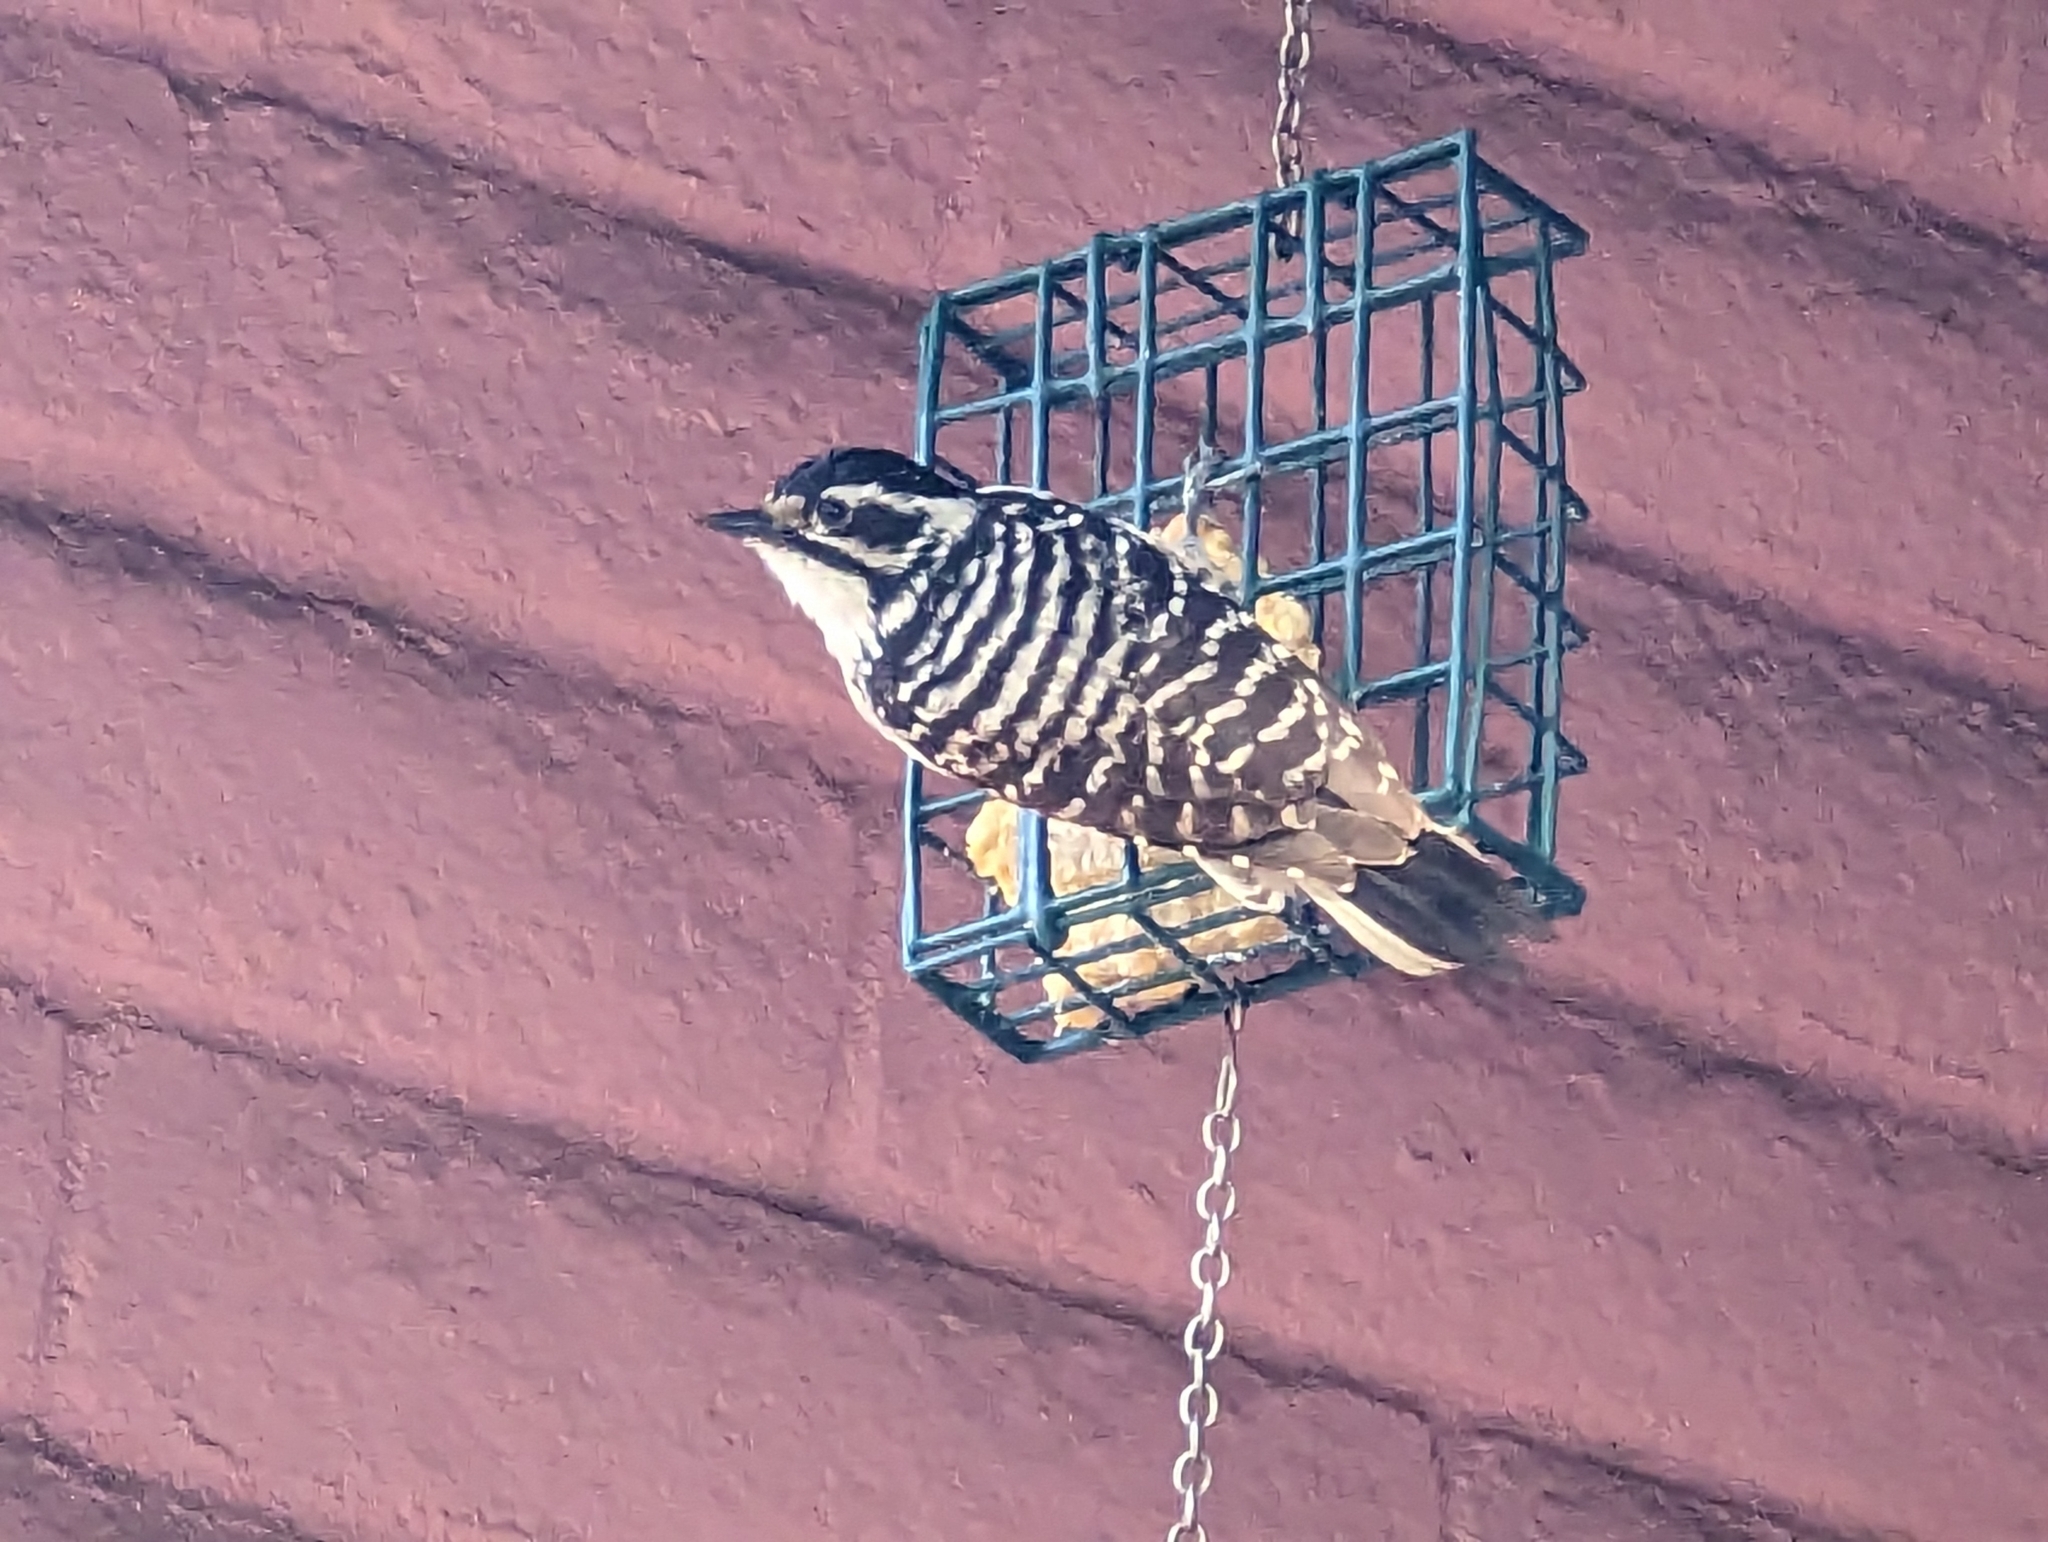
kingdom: Animalia
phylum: Chordata
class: Aves
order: Piciformes
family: Picidae
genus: Dryobates
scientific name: Dryobates nuttallii
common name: Nuttall's woodpecker
